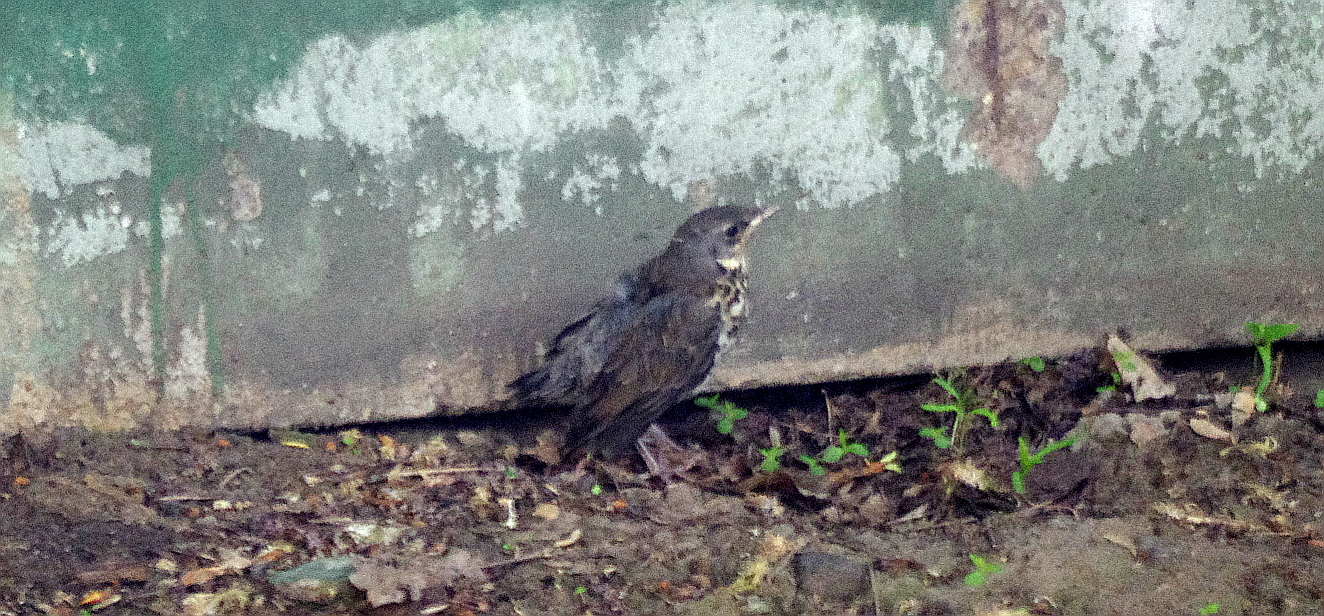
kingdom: Animalia
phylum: Chordata
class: Aves
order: Passeriformes
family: Turdidae
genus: Turdus
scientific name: Turdus pilaris
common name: Fieldfare
